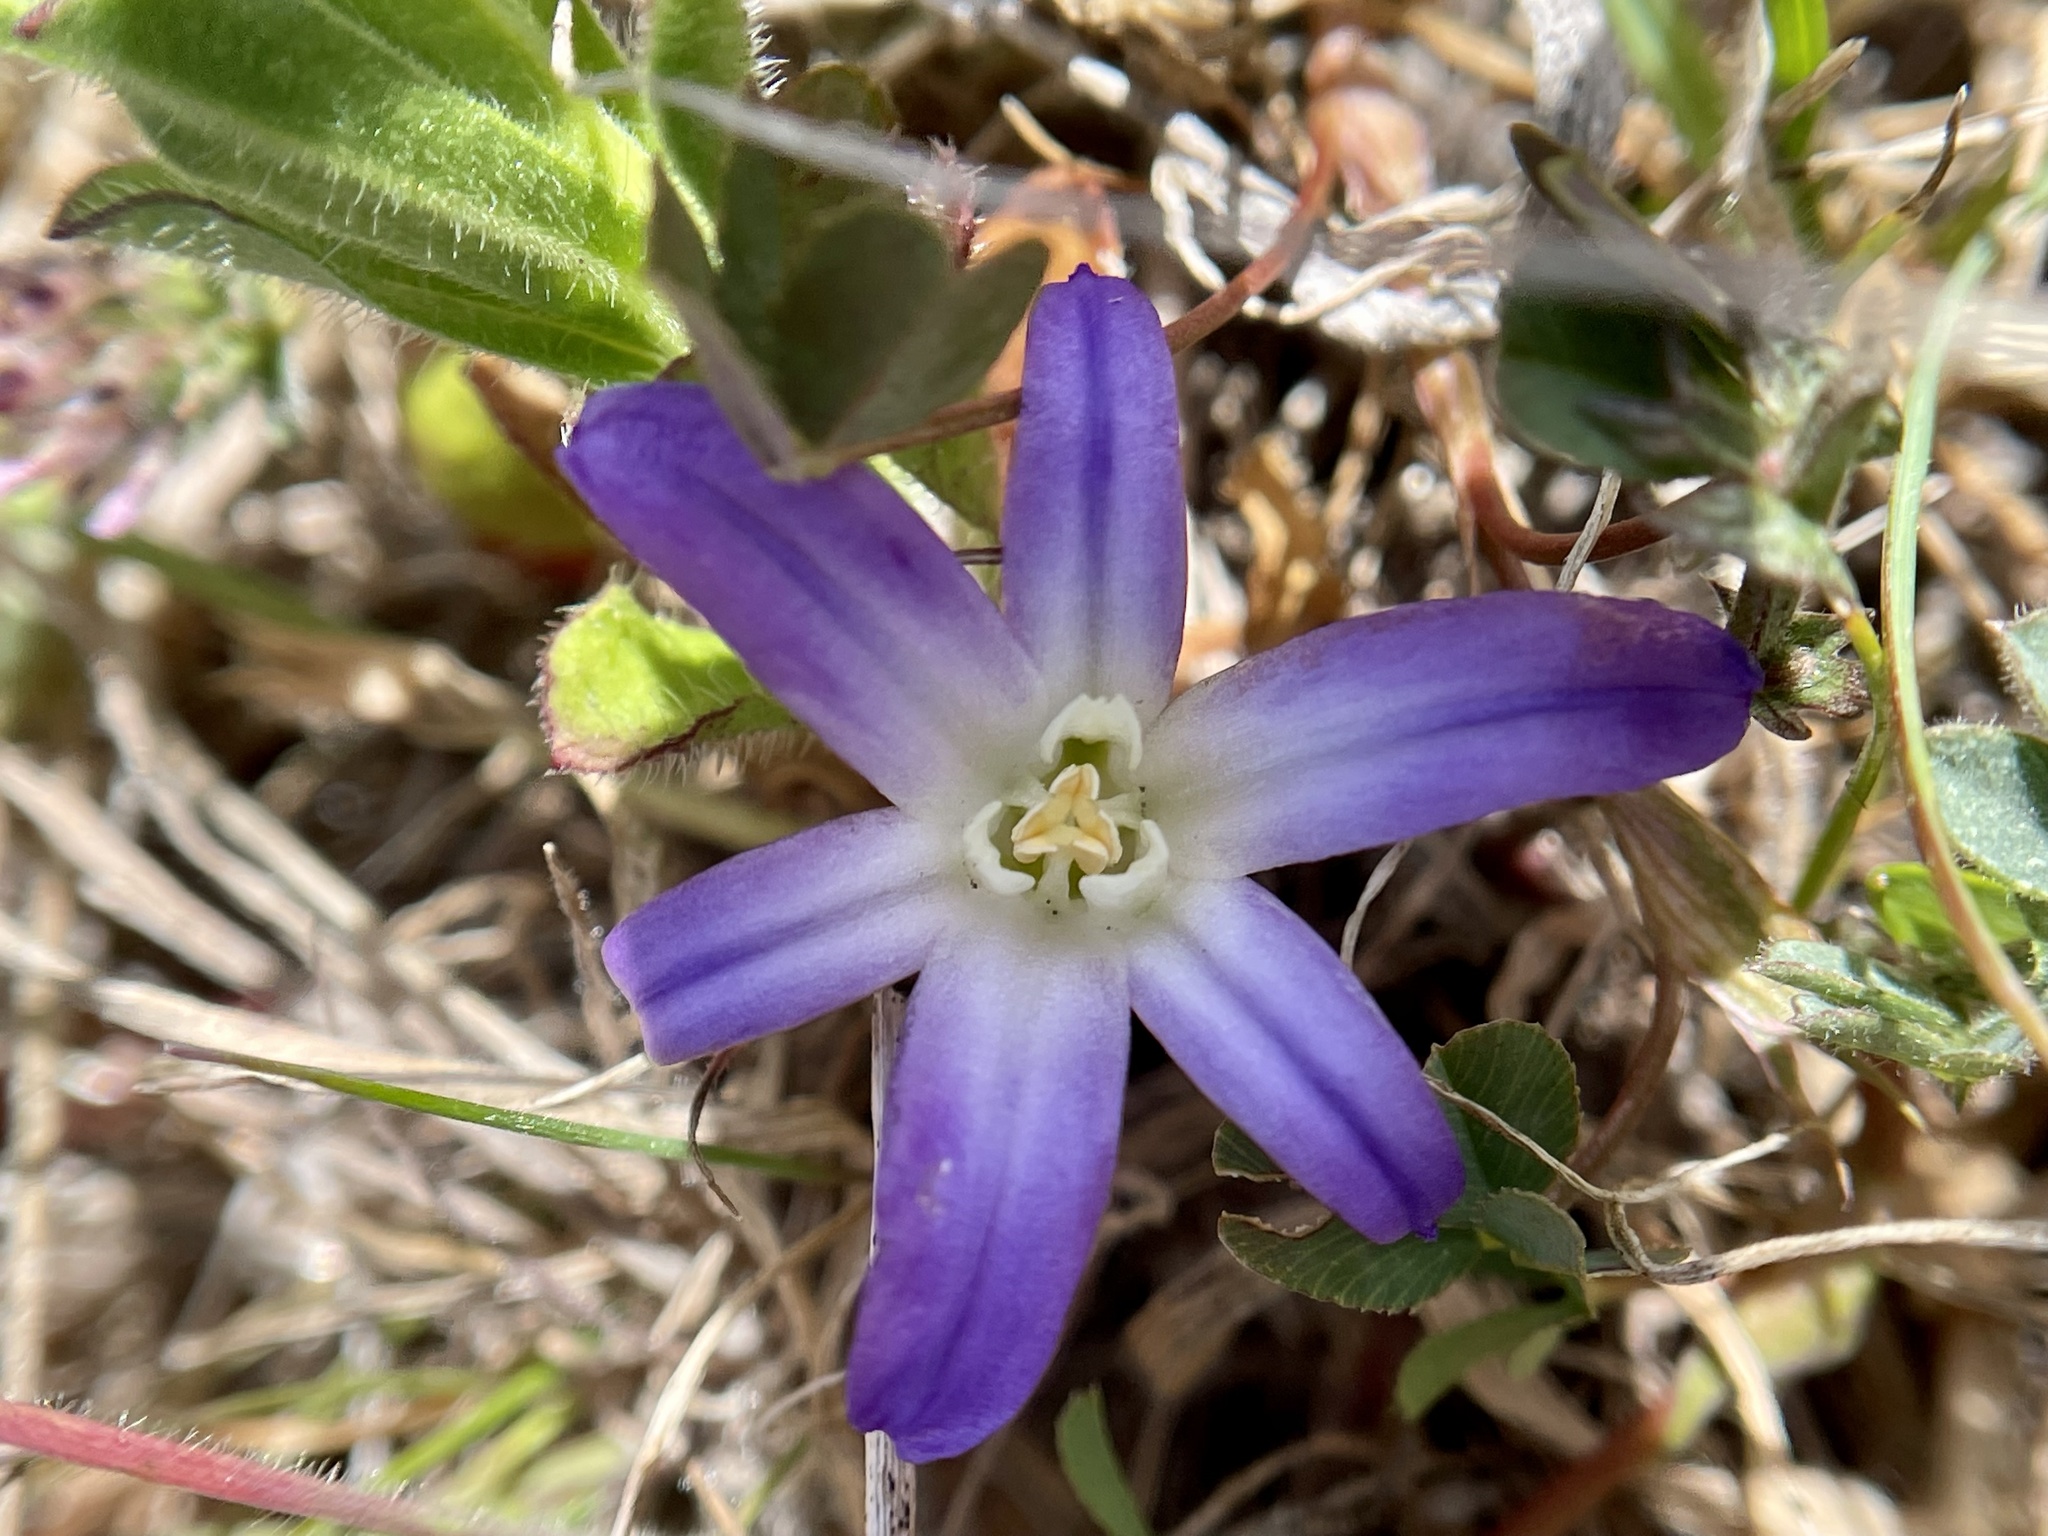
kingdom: Plantae
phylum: Tracheophyta
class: Liliopsida
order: Asparagales
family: Asparagaceae
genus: Brodiaea
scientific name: Brodiaea terrestris
